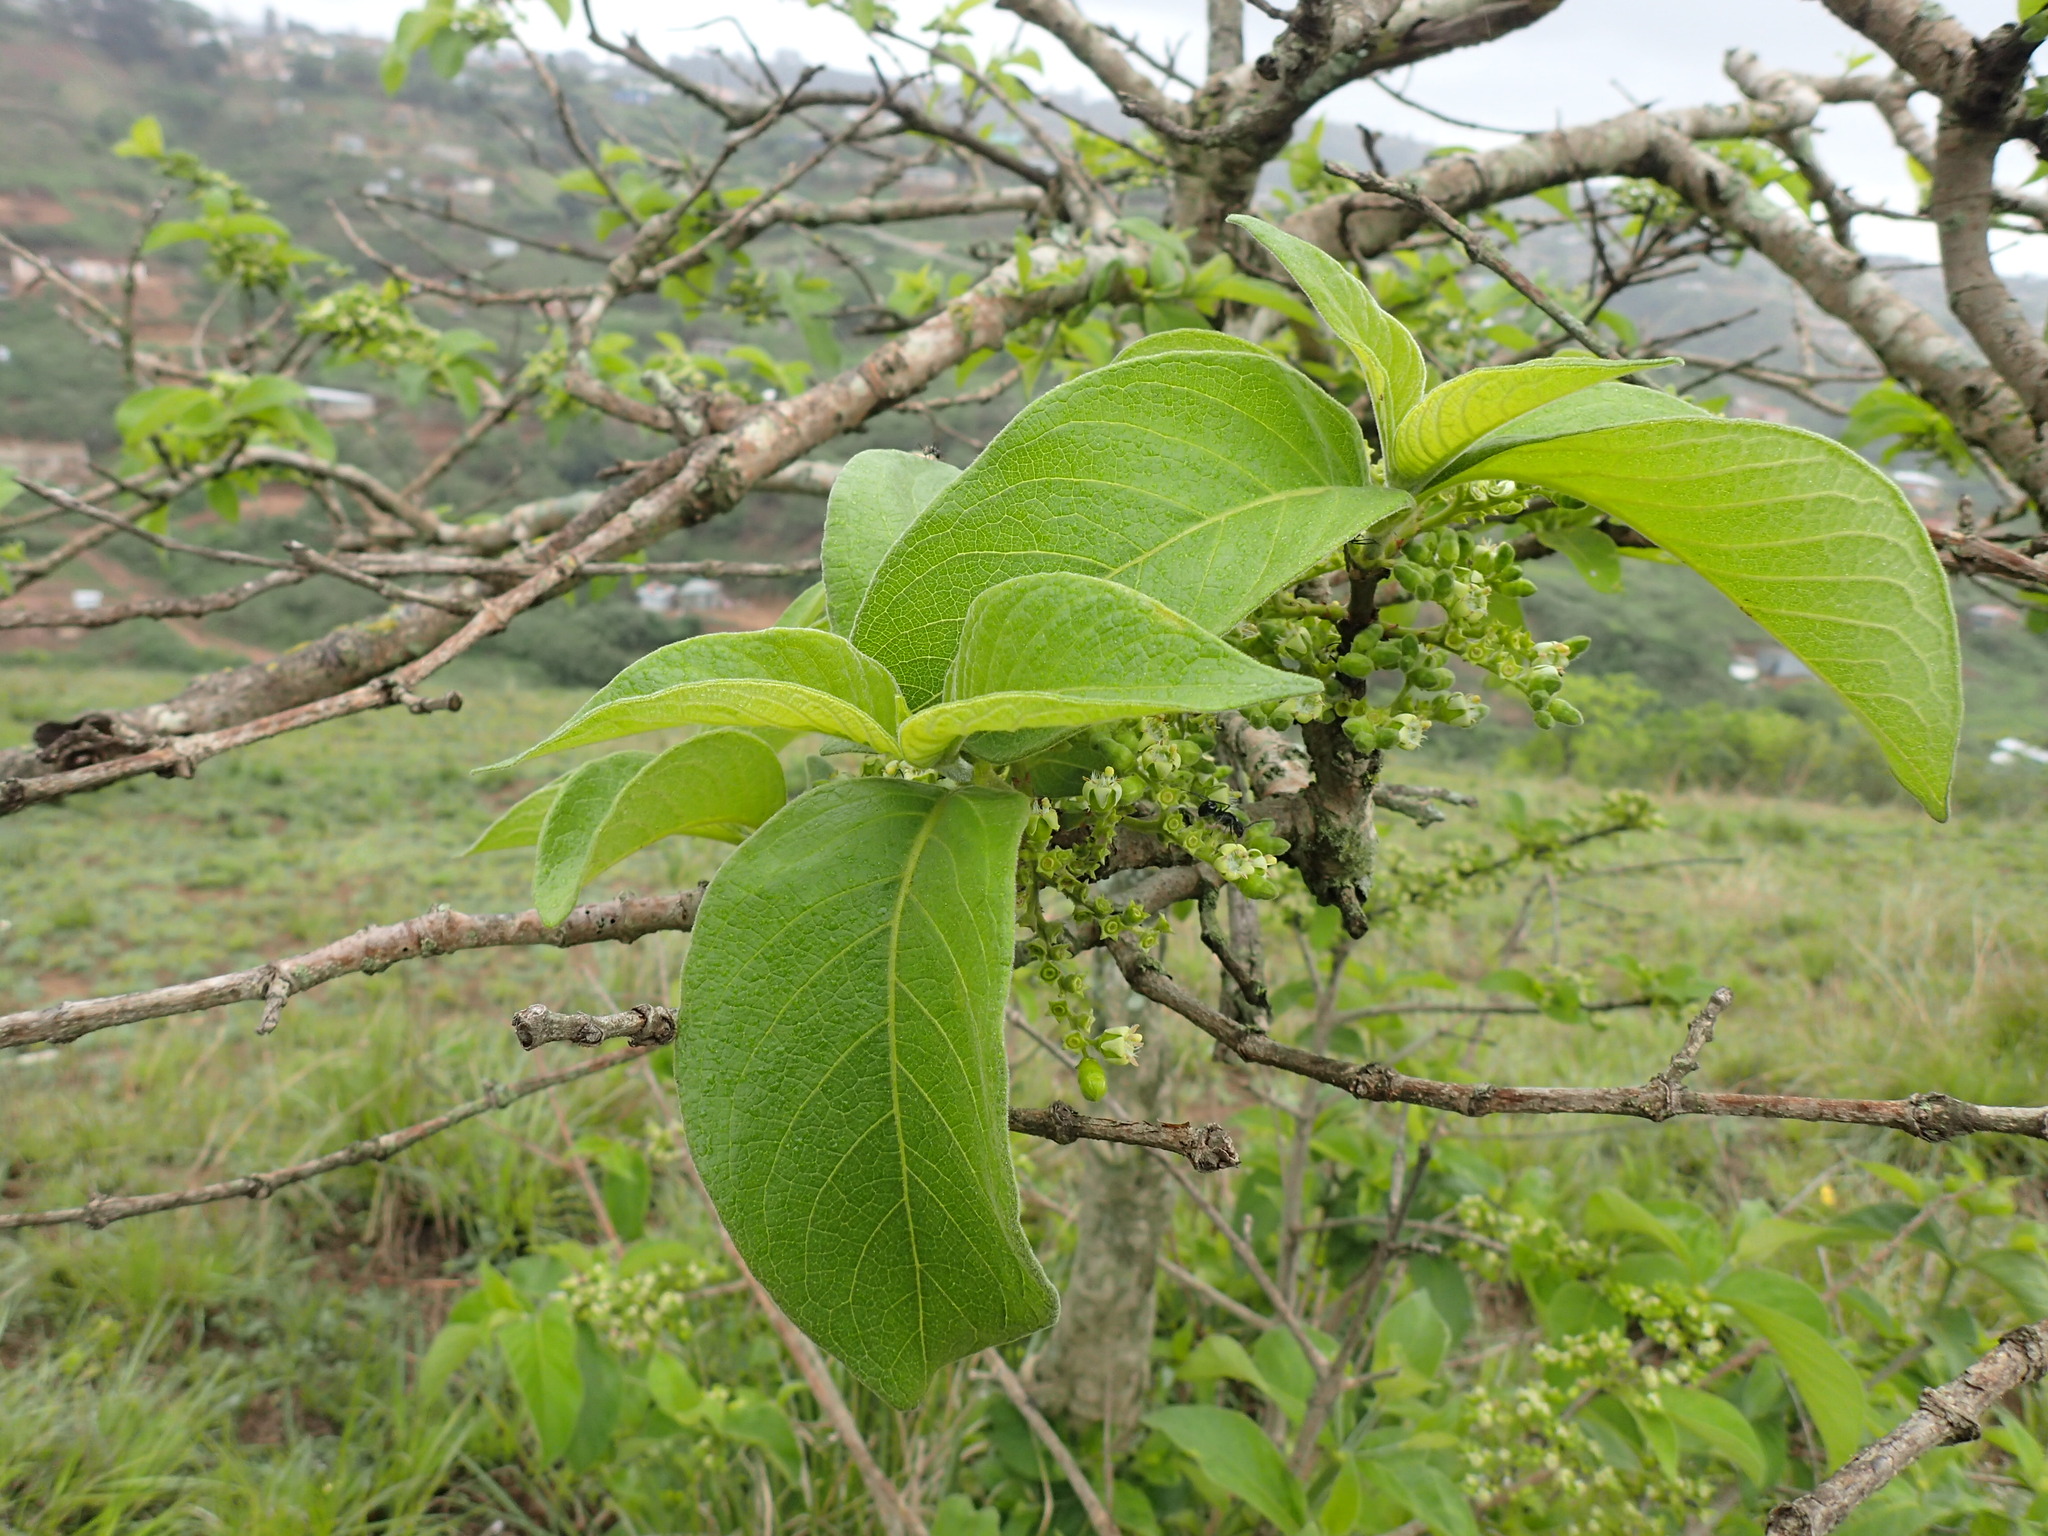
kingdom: Plantae
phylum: Tracheophyta
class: Magnoliopsida
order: Gentianales
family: Rubiaceae
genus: Vangueria
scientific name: Vangueria infausta
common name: Medlar
